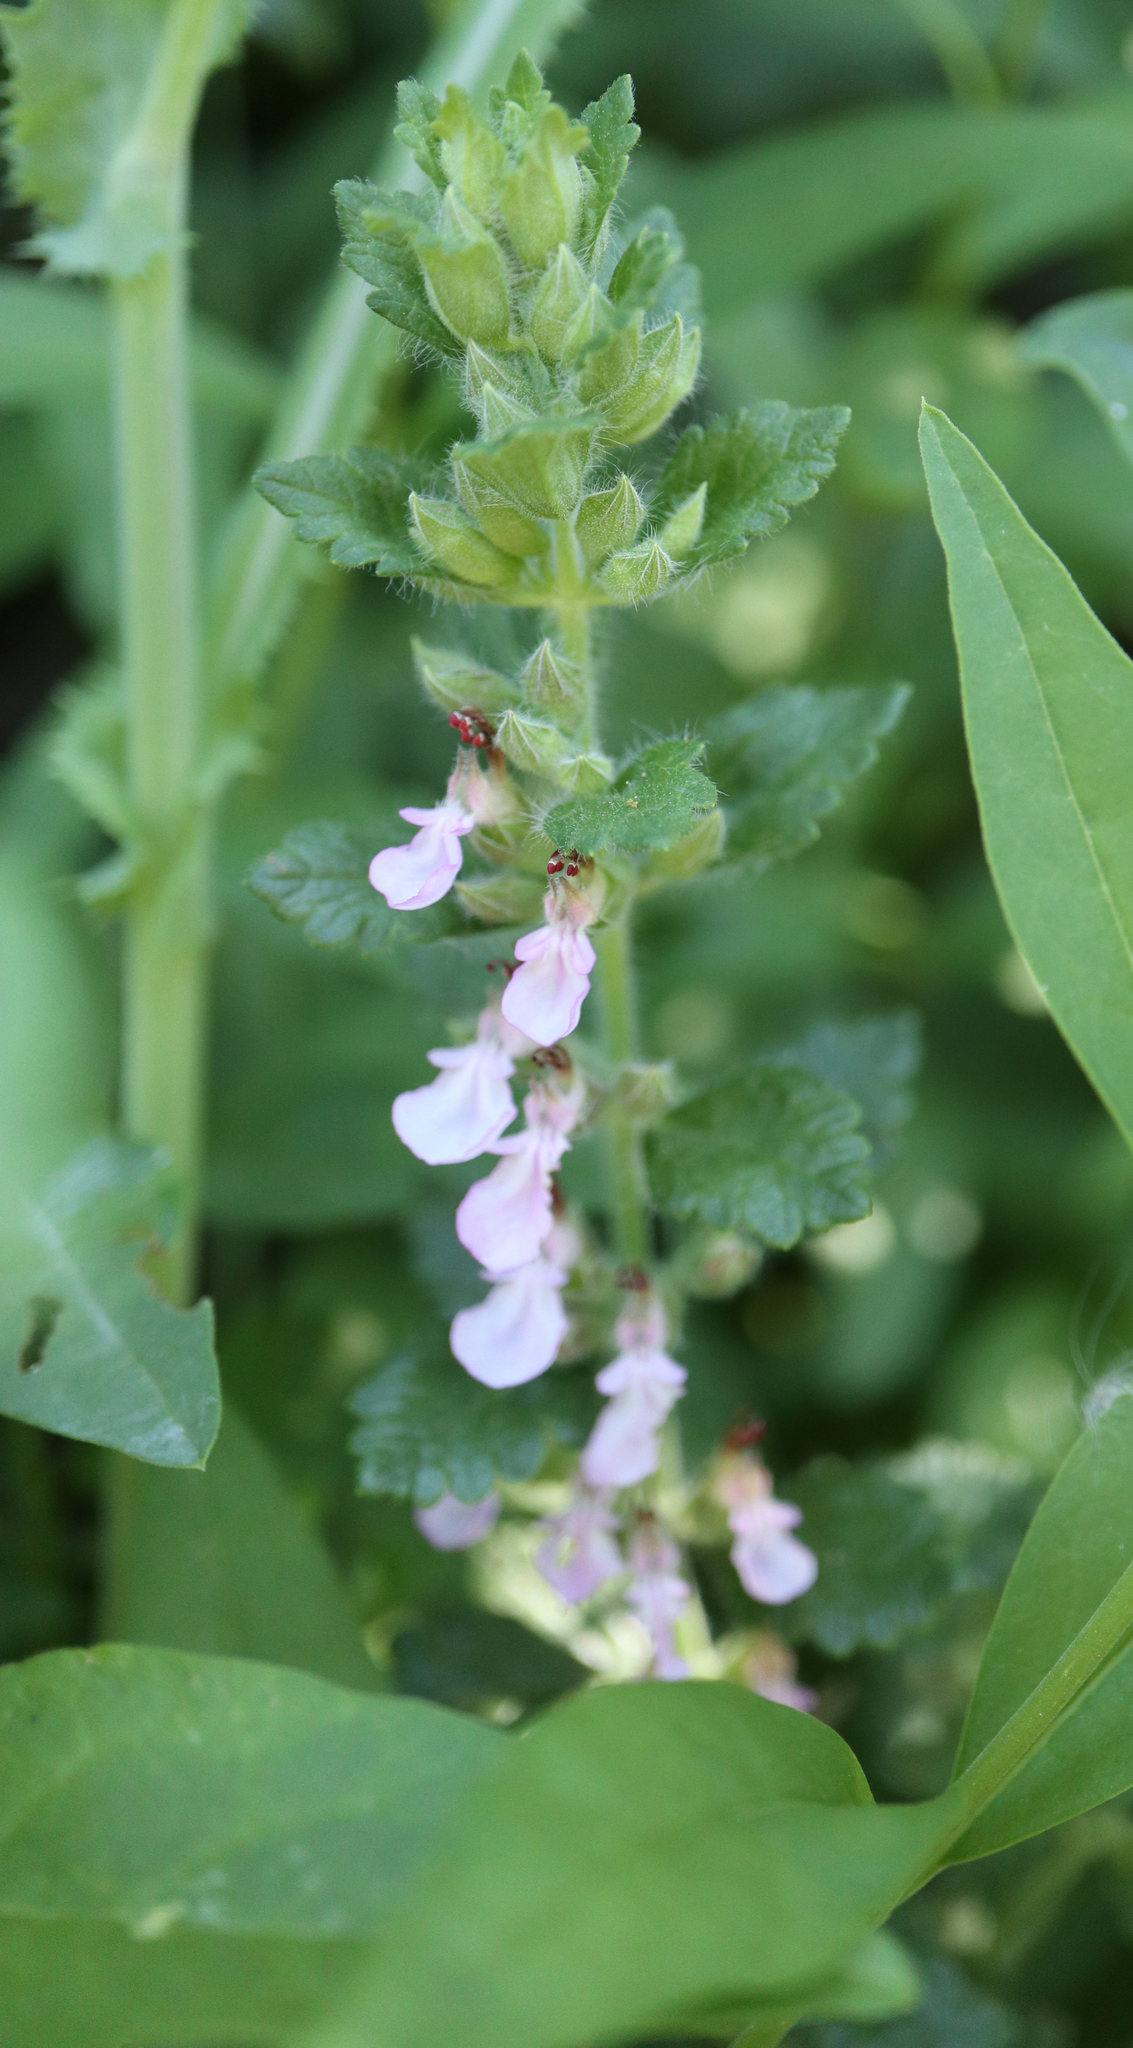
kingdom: Plantae
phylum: Tracheophyta
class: Magnoliopsida
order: Lamiales
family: Lamiaceae
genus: Teucrium
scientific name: Teucrium chamaedrys
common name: Wall germander
